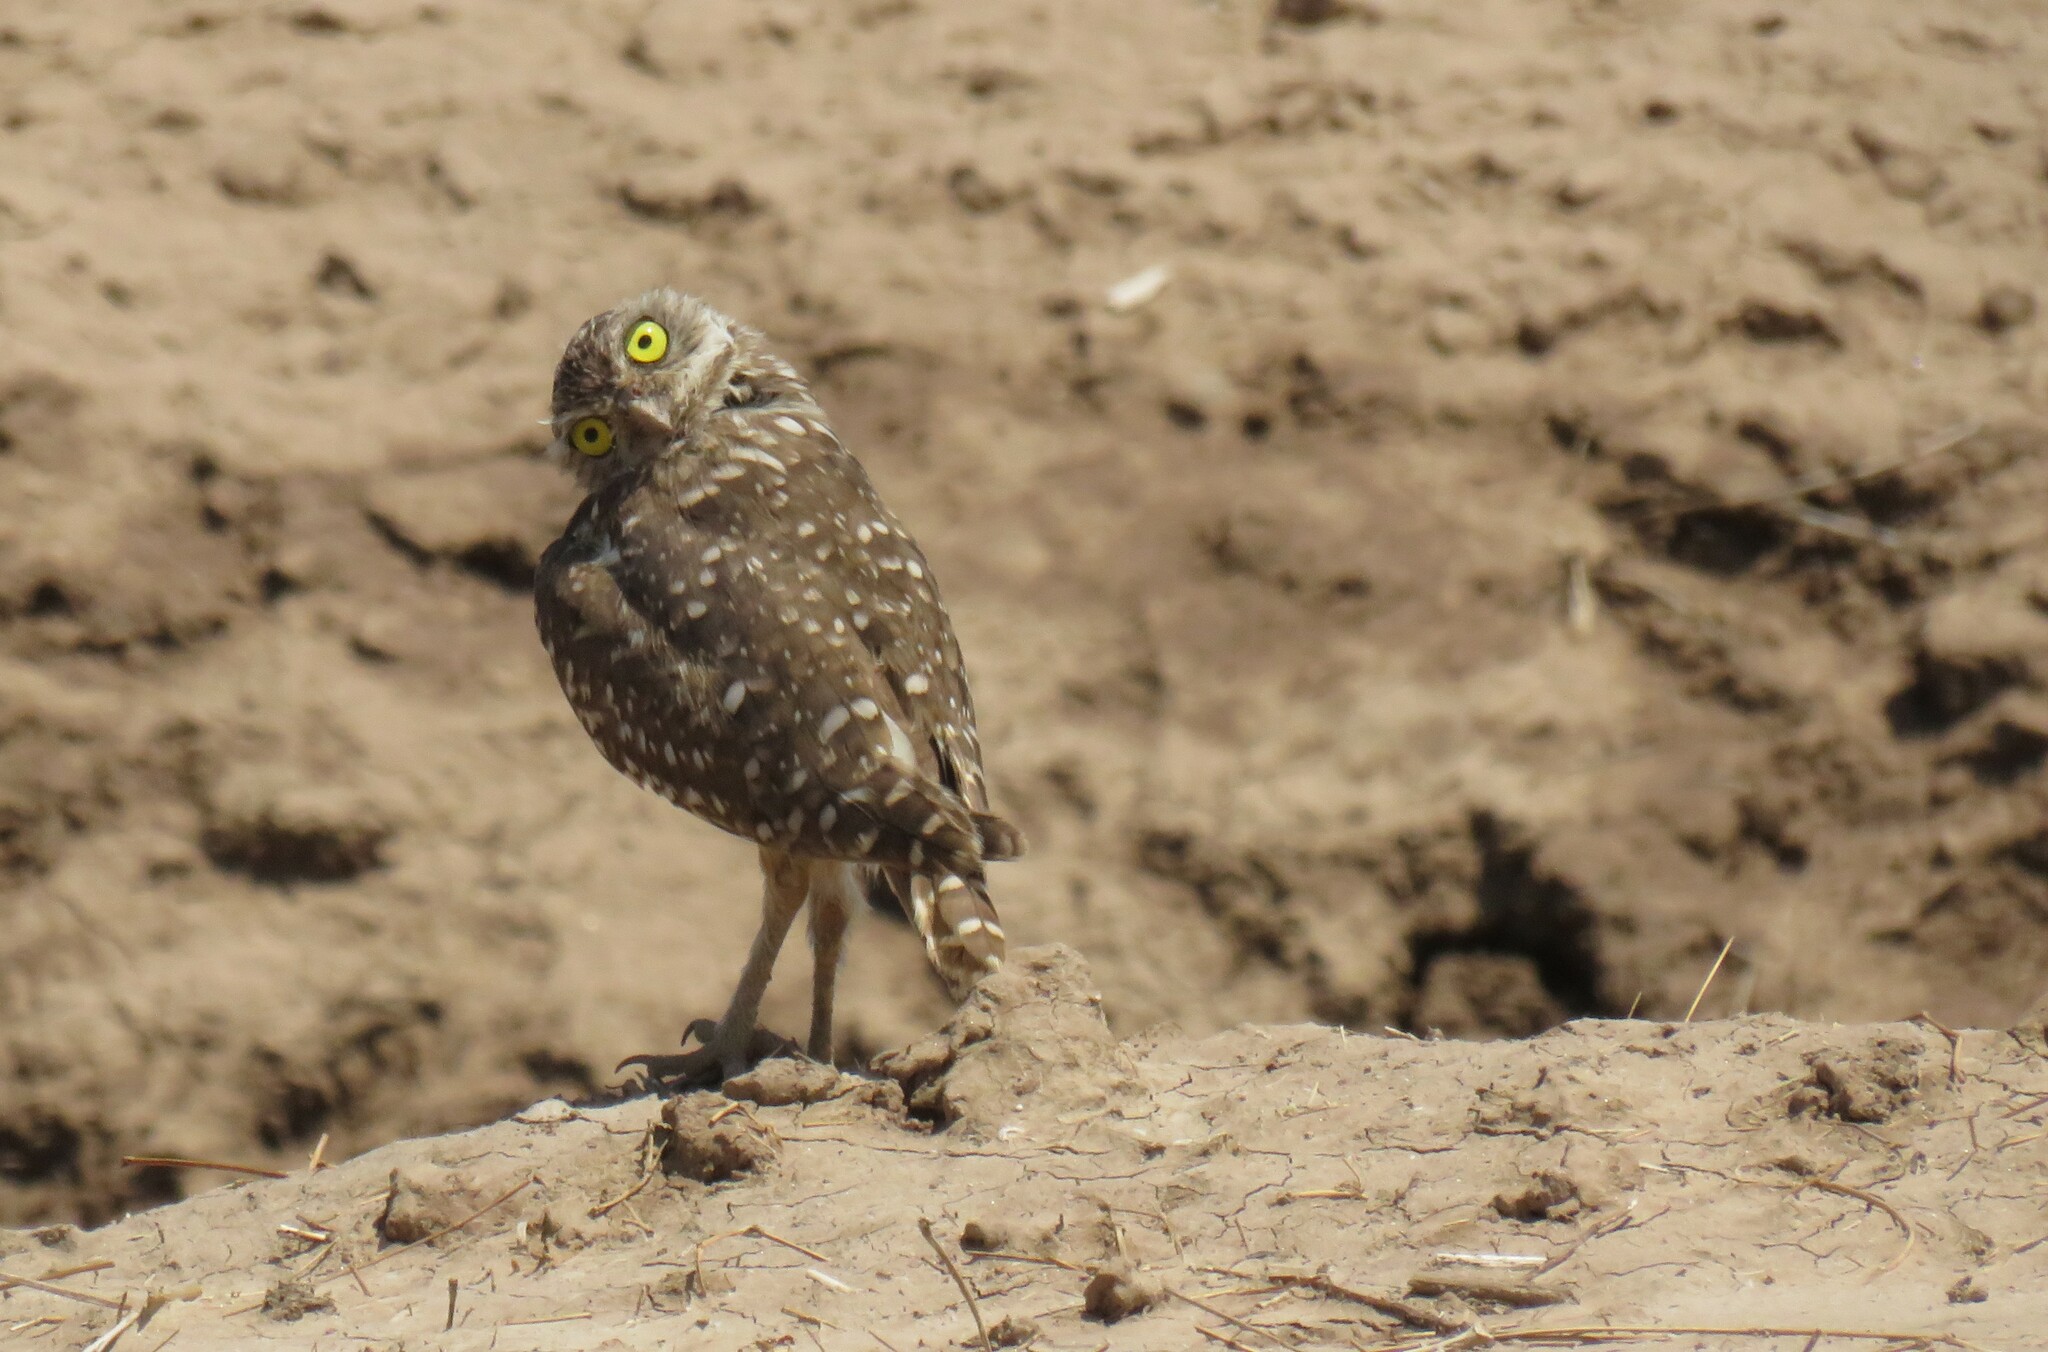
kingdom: Animalia
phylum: Chordata
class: Aves
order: Strigiformes
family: Strigidae
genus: Athene
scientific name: Athene cunicularia
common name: Burrowing owl
